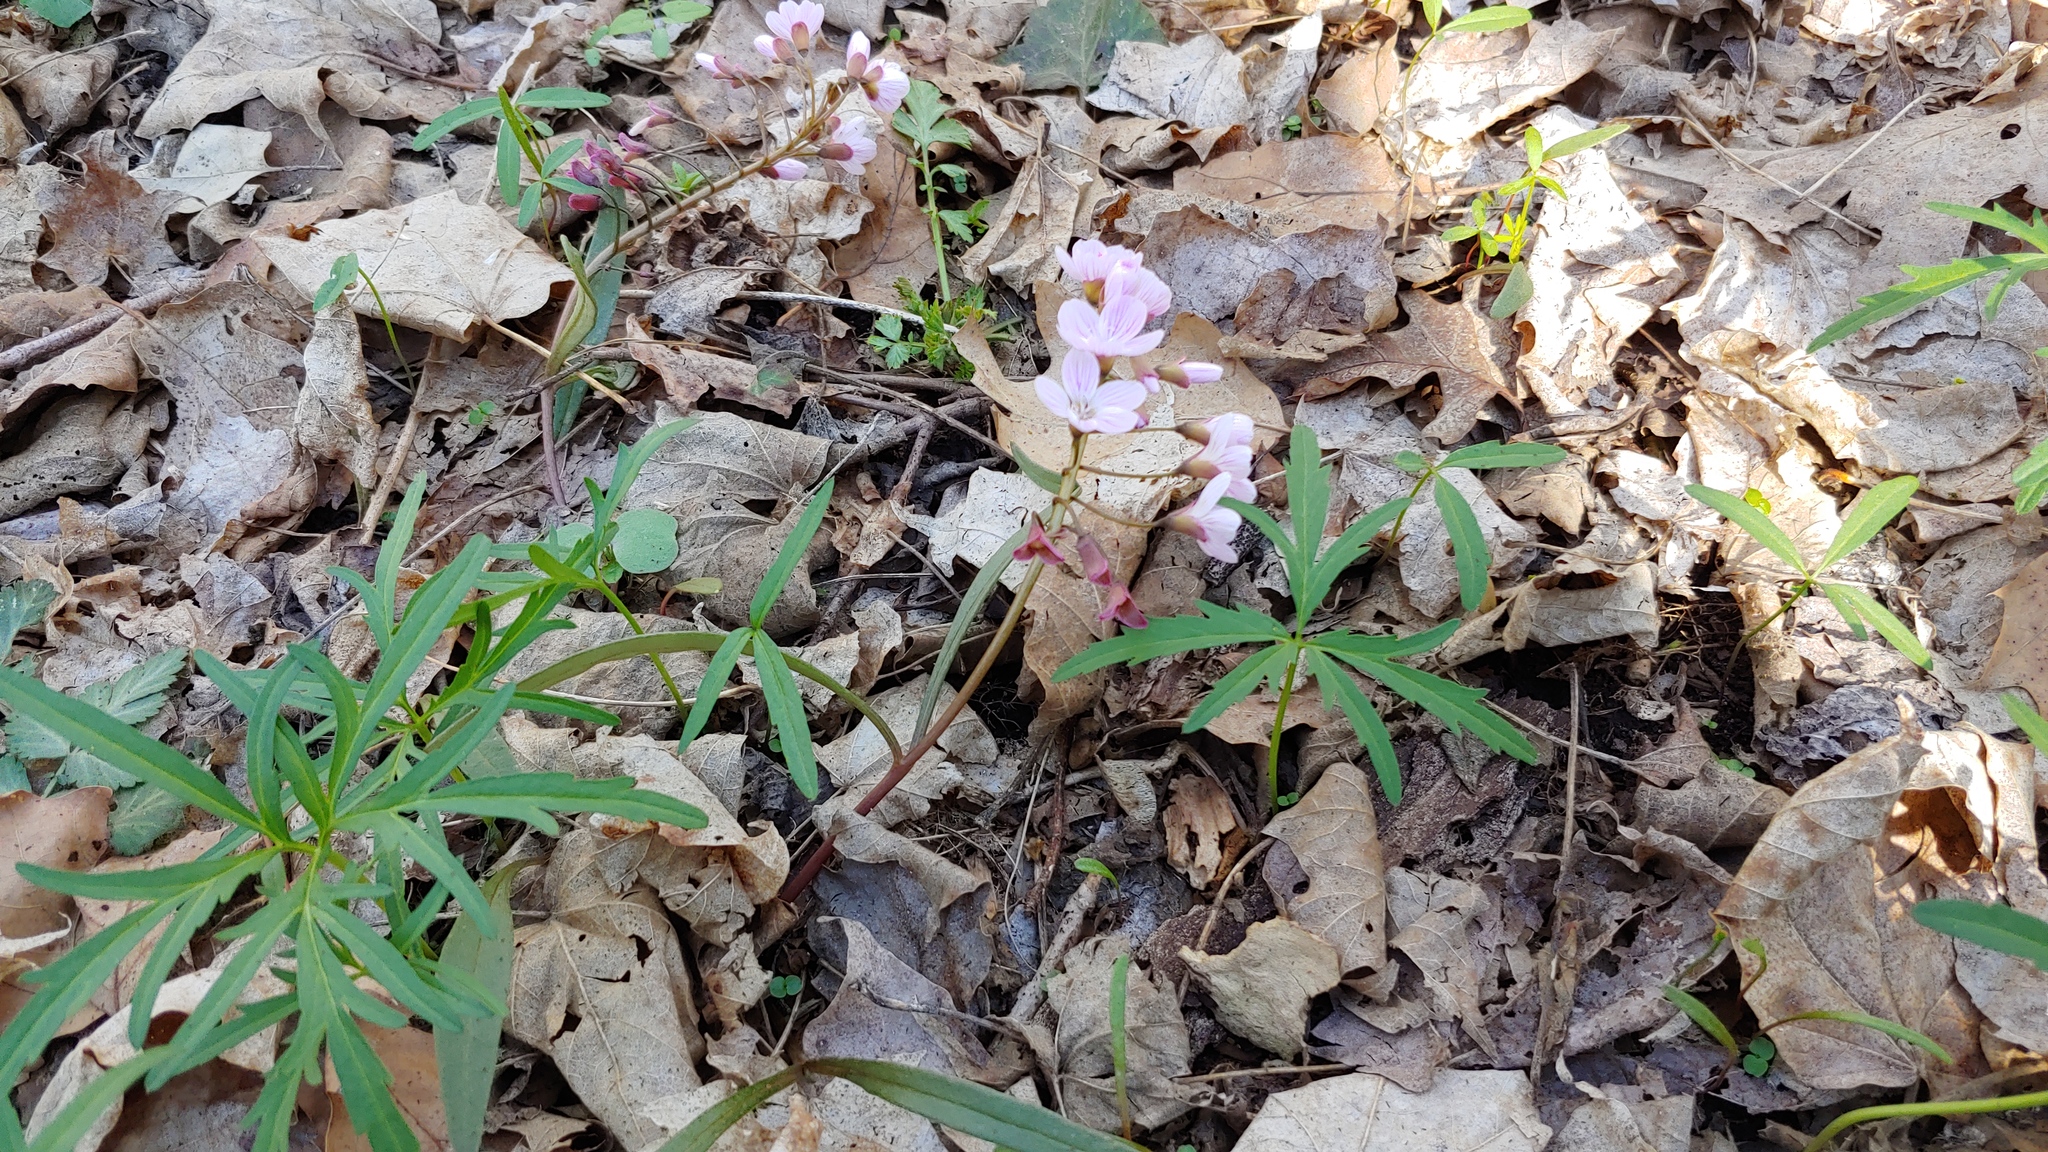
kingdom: Plantae
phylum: Tracheophyta
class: Magnoliopsida
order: Caryophyllales
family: Montiaceae
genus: Claytonia
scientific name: Claytonia virginica
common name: Virginia springbeauty
